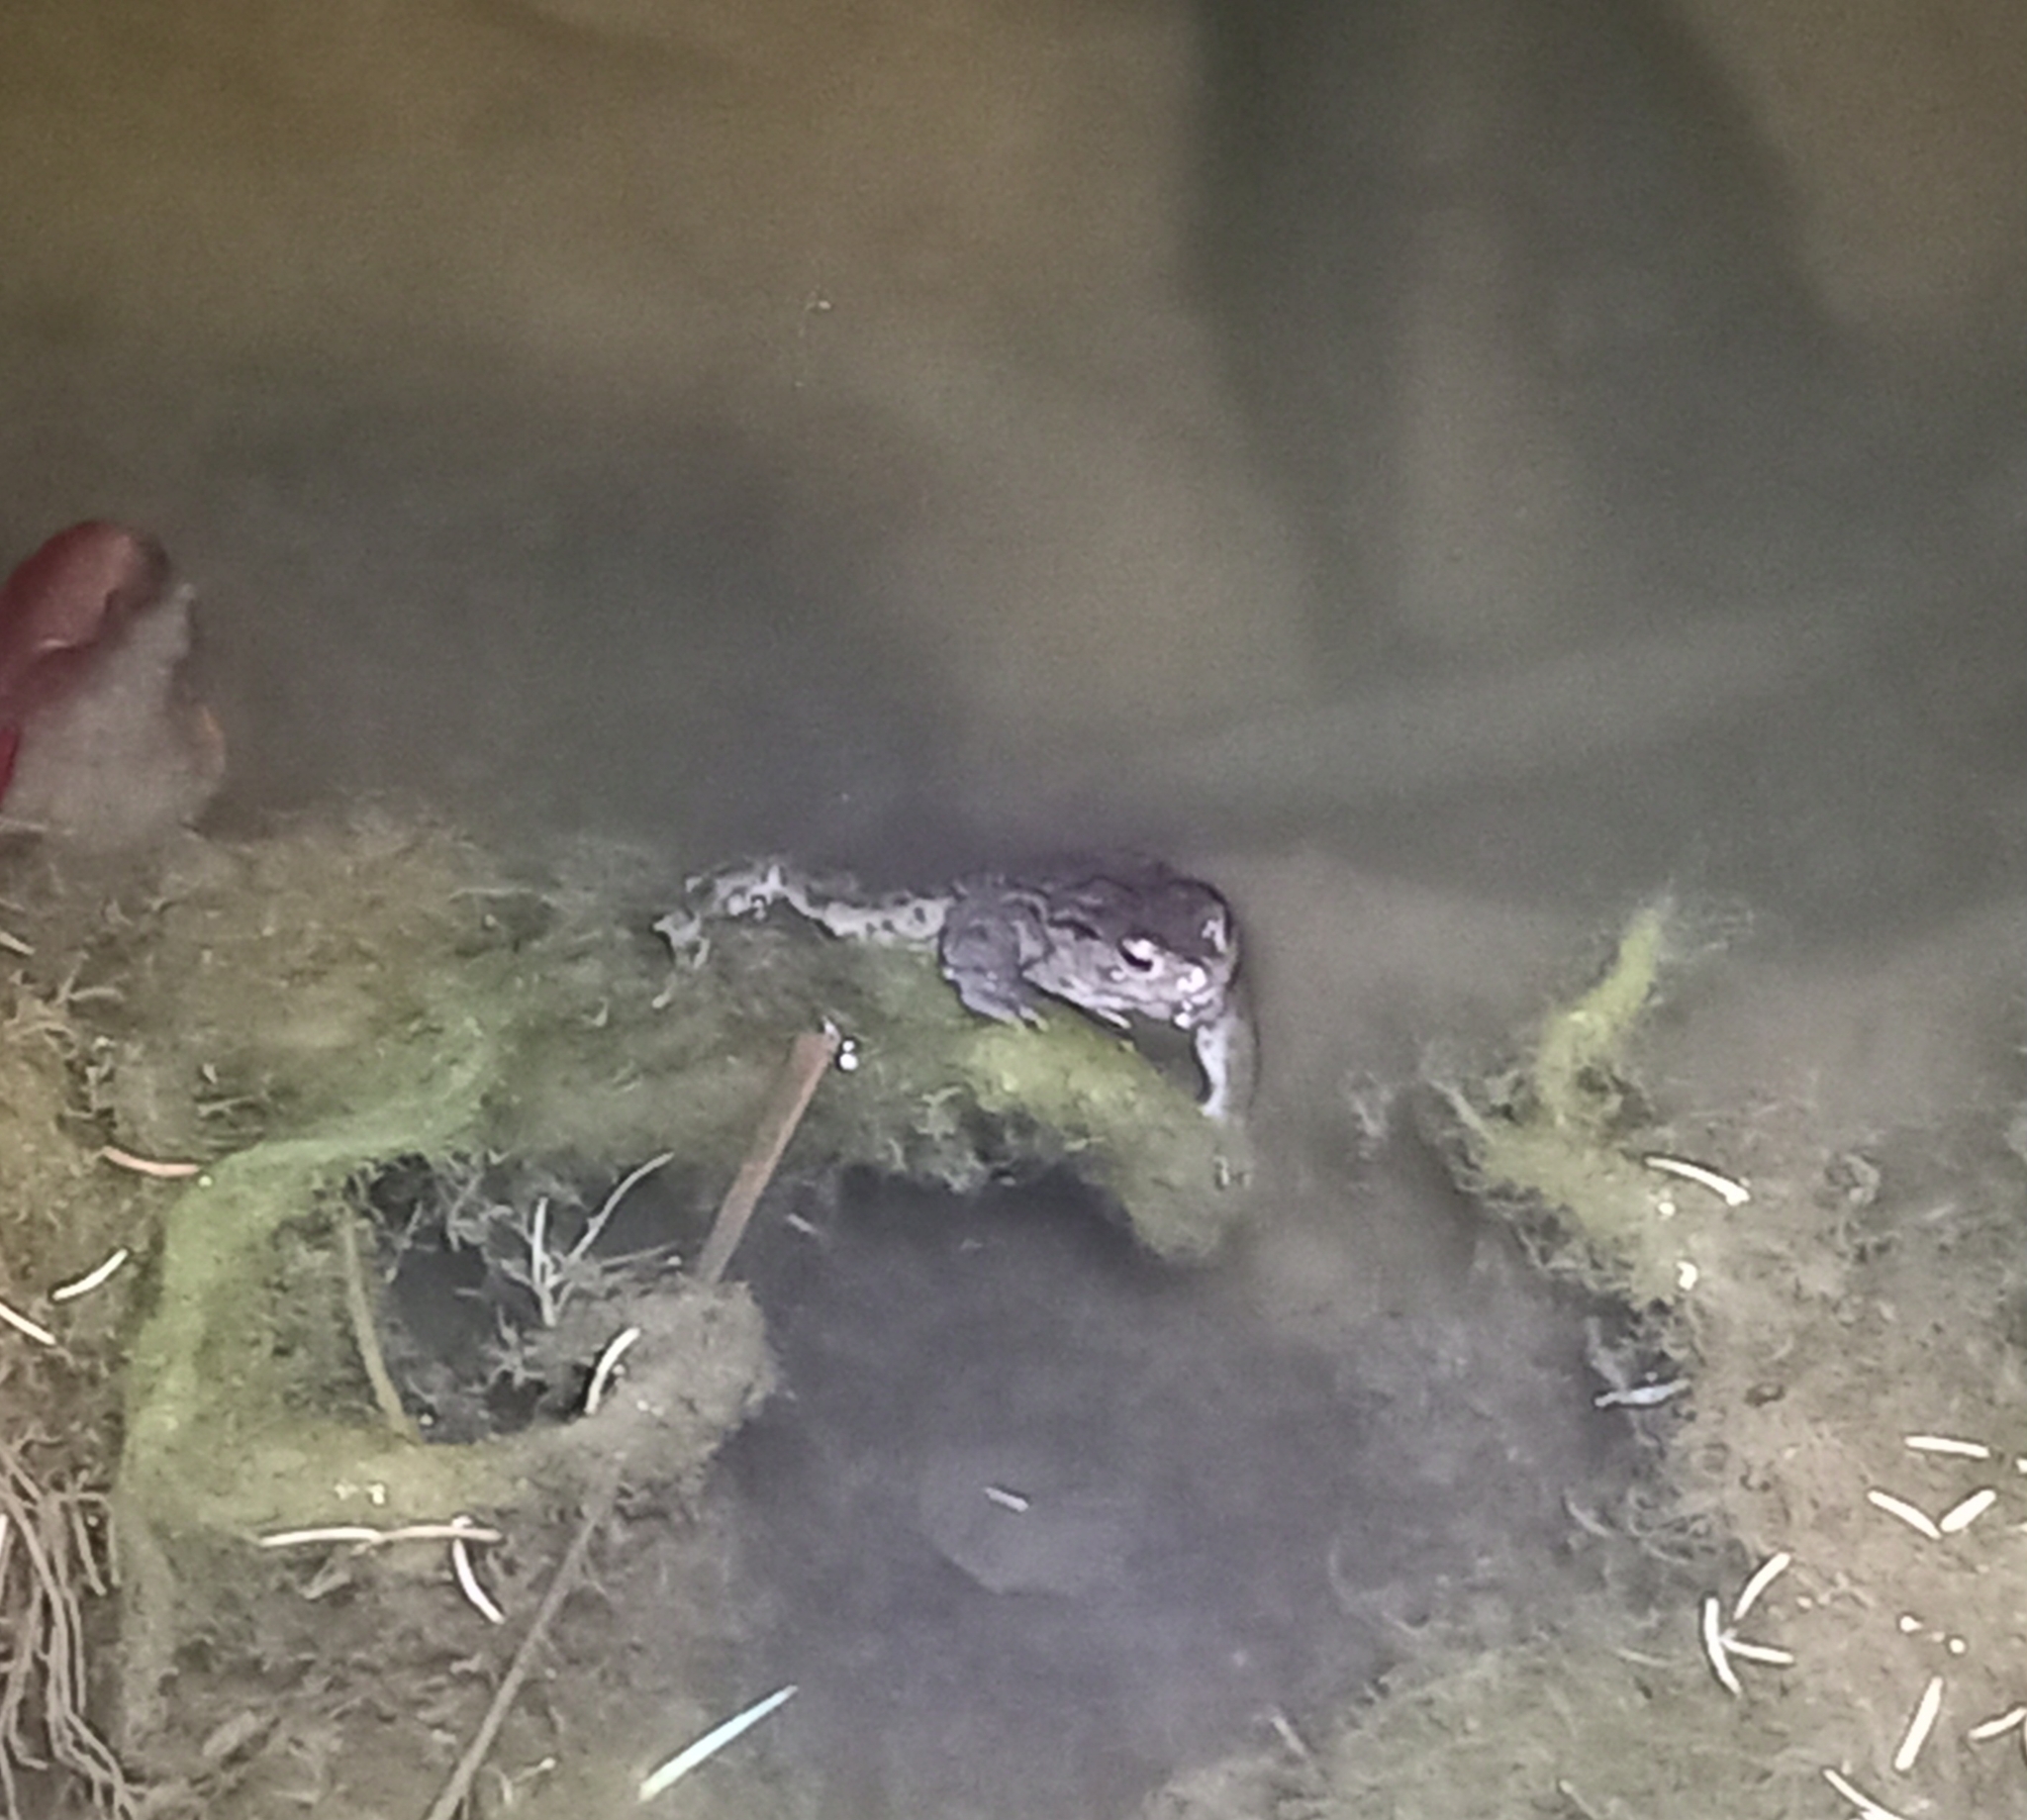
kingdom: Animalia
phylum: Chordata
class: Amphibia
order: Anura
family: Bufonidae
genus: Bufo
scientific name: Bufo bufo
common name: Common toad
